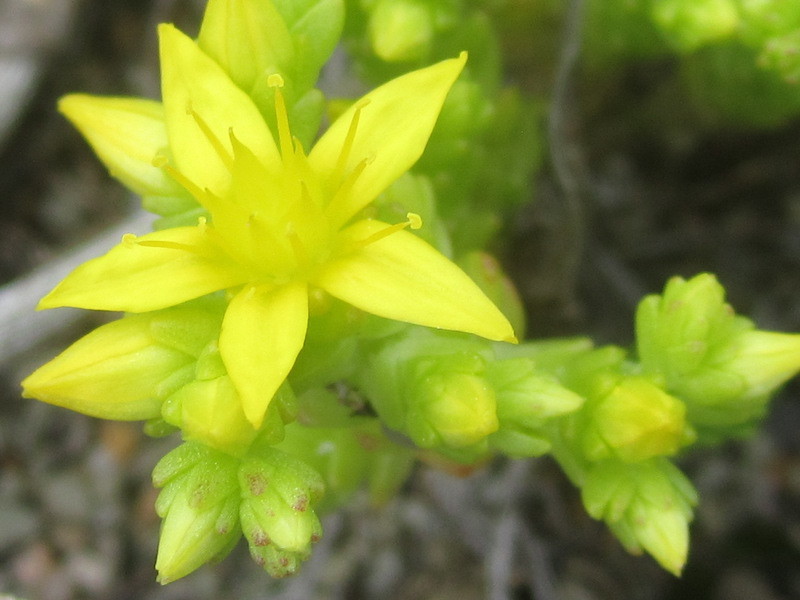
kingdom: Plantae
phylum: Tracheophyta
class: Magnoliopsida
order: Saxifragales
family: Crassulaceae
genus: Sedum
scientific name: Sedum acre
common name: Biting stonecrop
